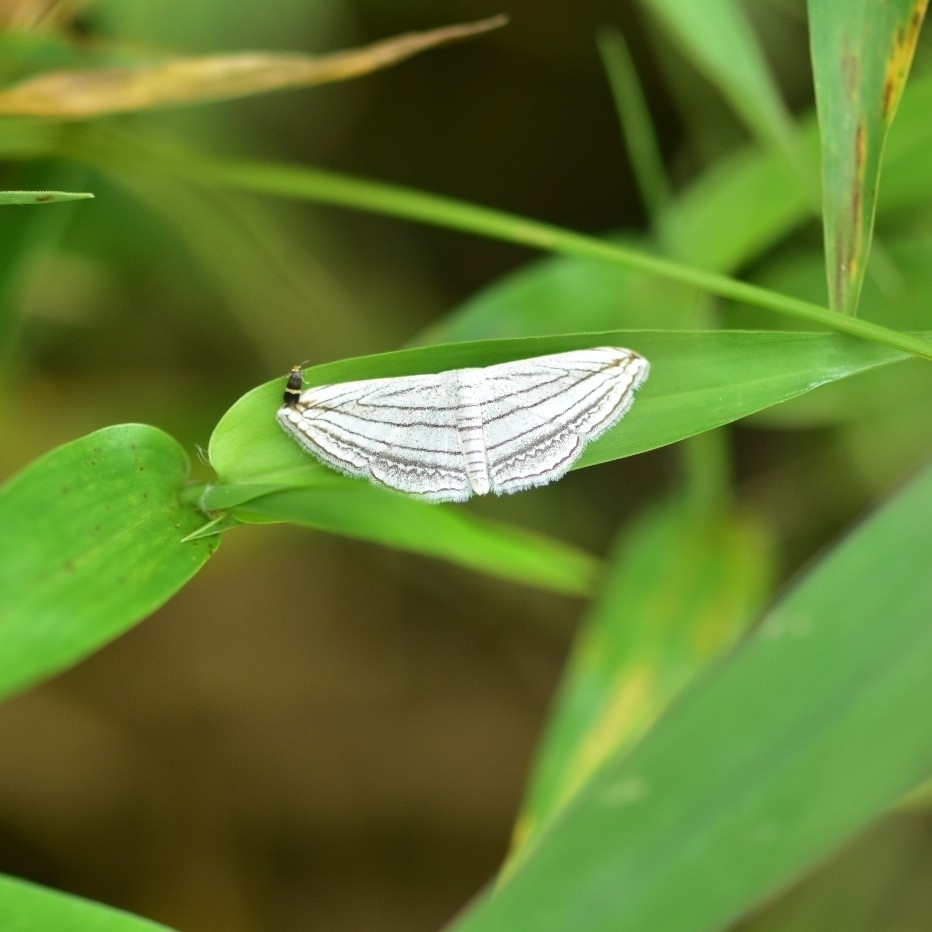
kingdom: Animalia
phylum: Arthropoda
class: Insecta
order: Lepidoptera
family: Geometridae
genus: Scopula
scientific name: Scopula opicata
